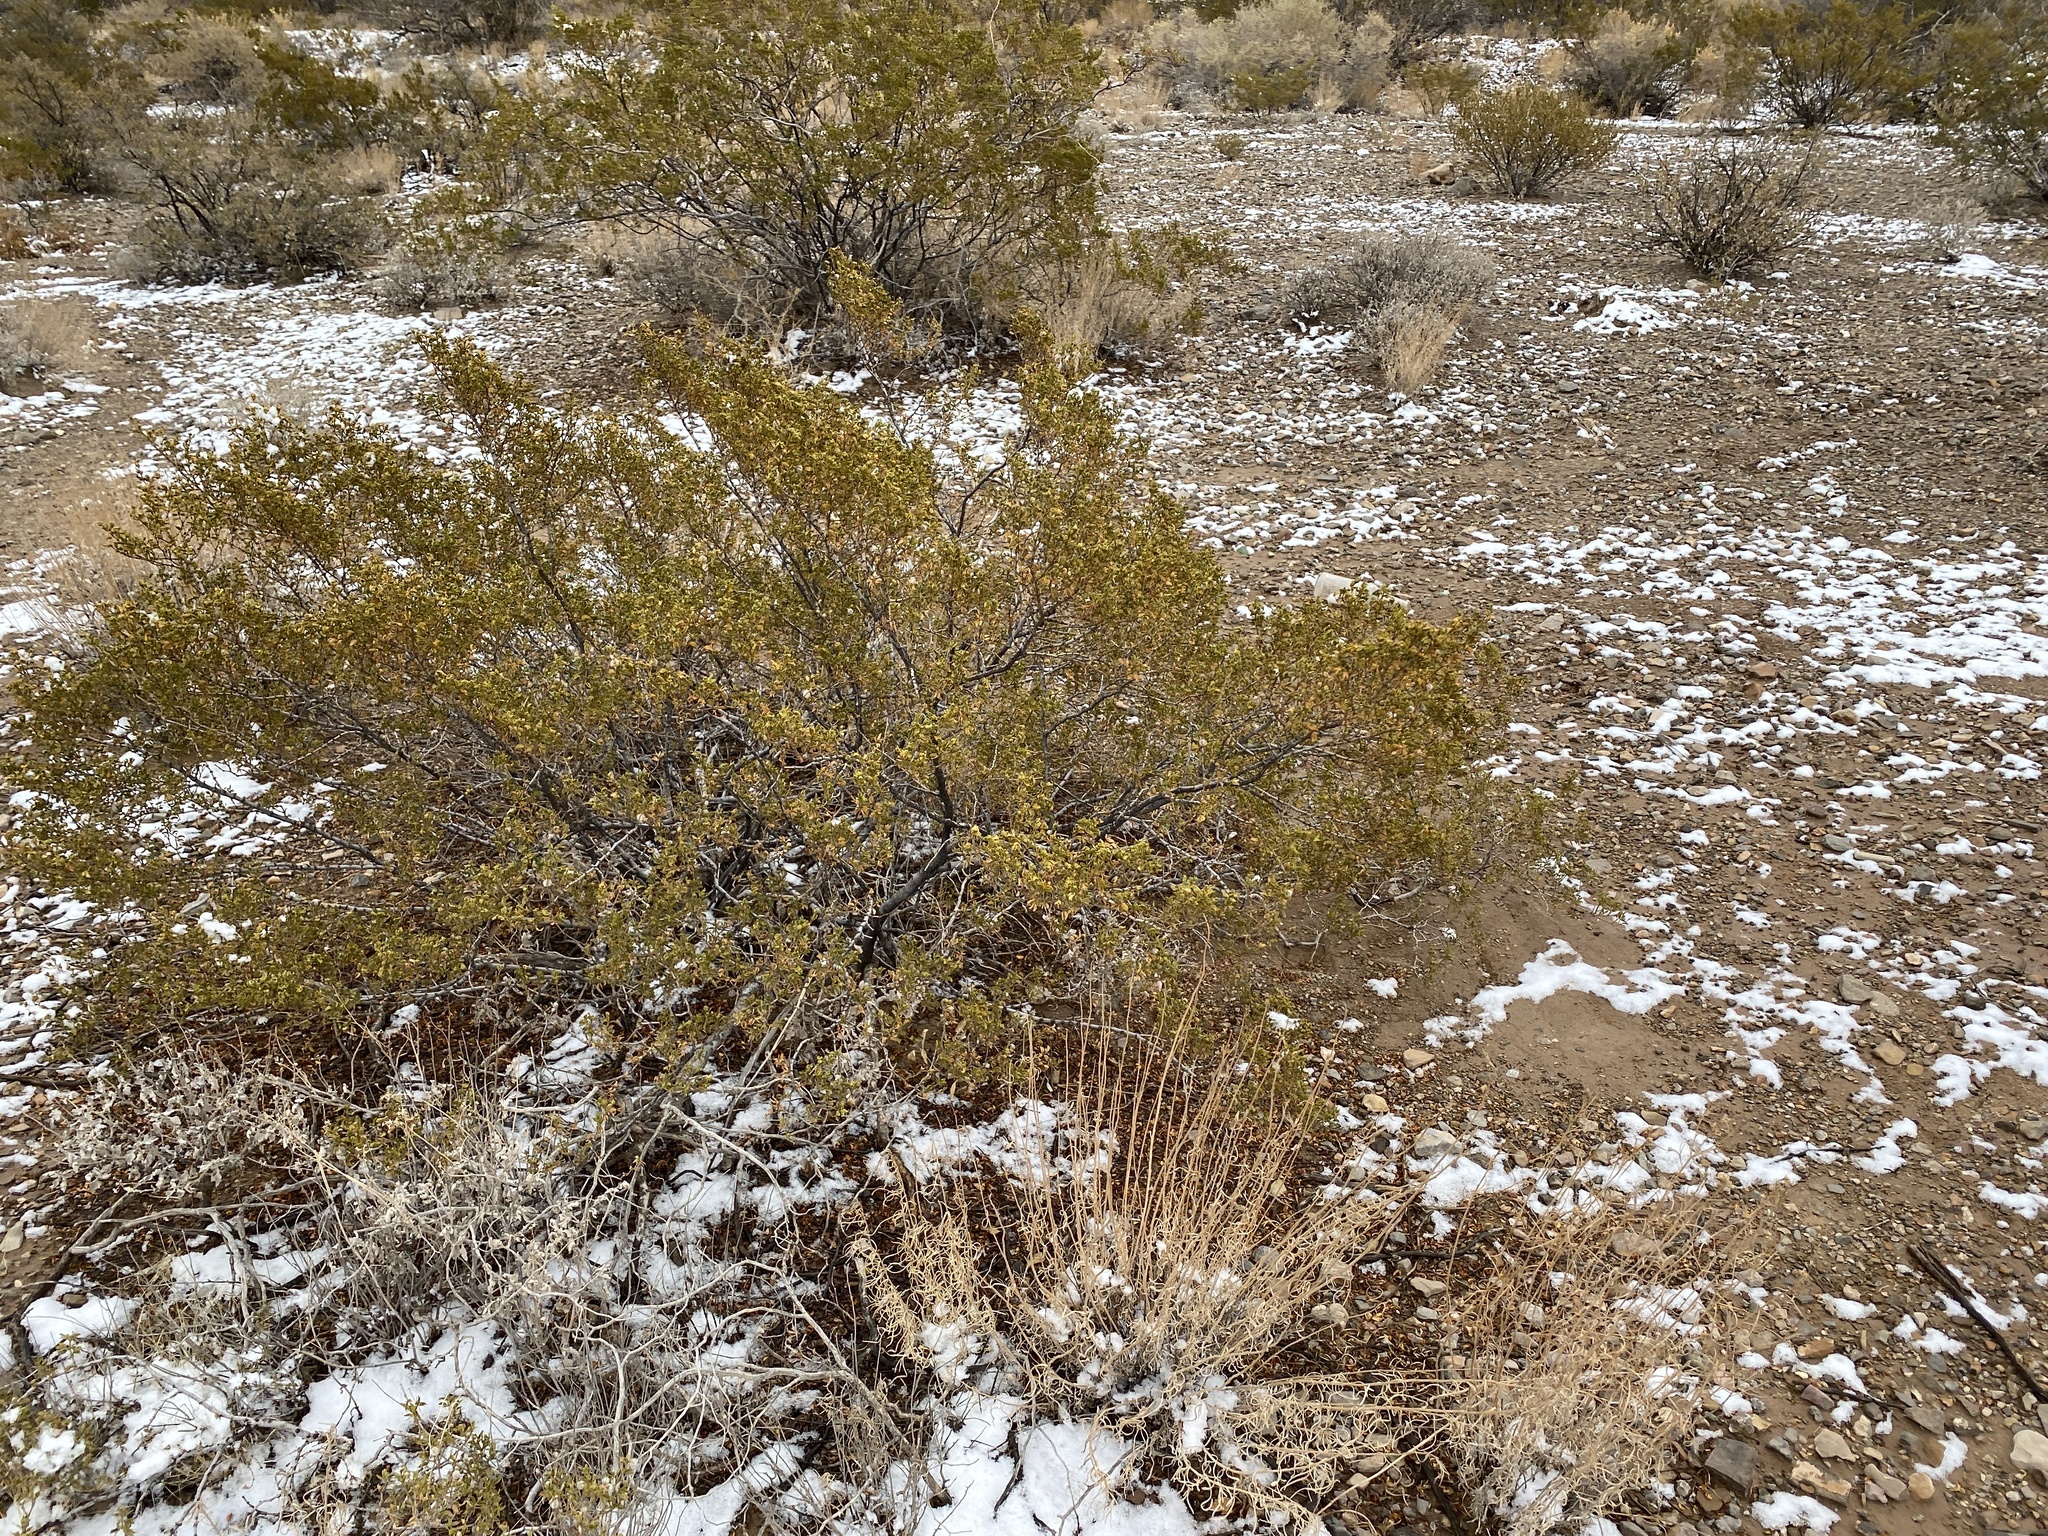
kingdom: Plantae
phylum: Tracheophyta
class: Magnoliopsida
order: Zygophyllales
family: Zygophyllaceae
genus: Larrea
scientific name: Larrea tridentata
